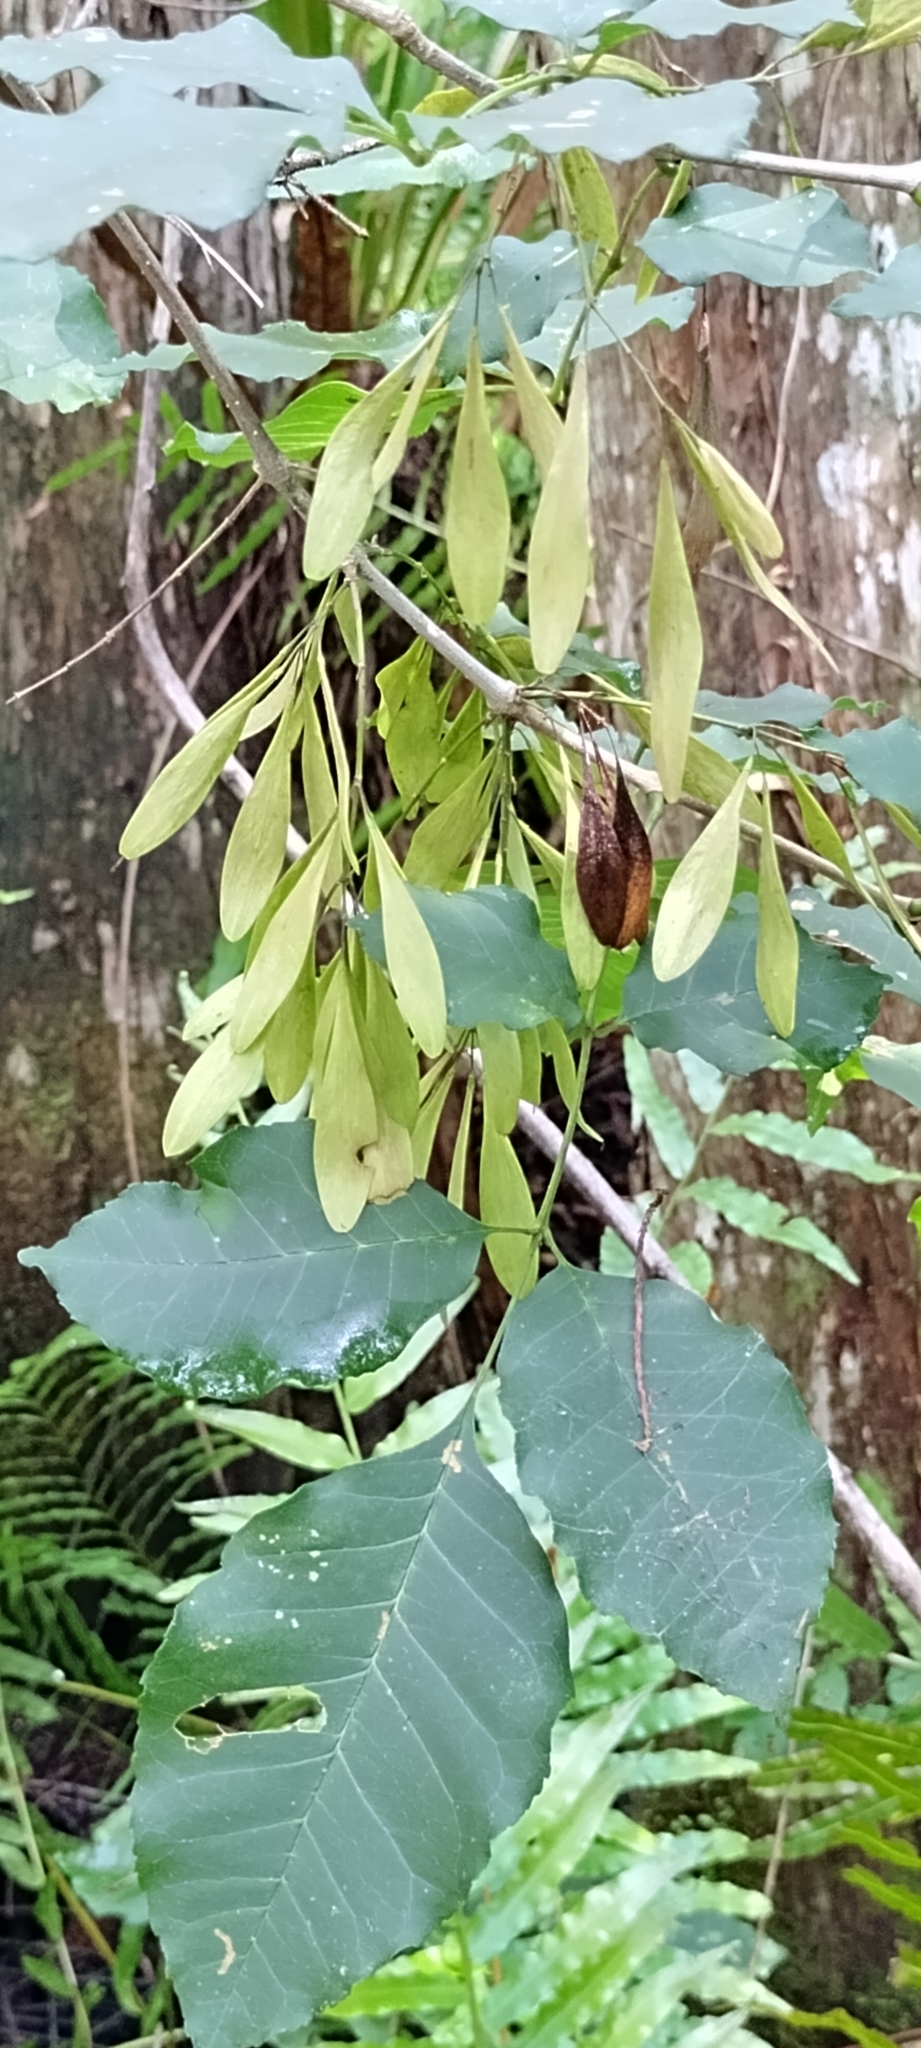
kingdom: Plantae
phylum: Tracheophyta
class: Magnoliopsida
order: Lamiales
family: Oleaceae
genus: Fraxinus
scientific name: Fraxinus caroliniana
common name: Carolina ash
